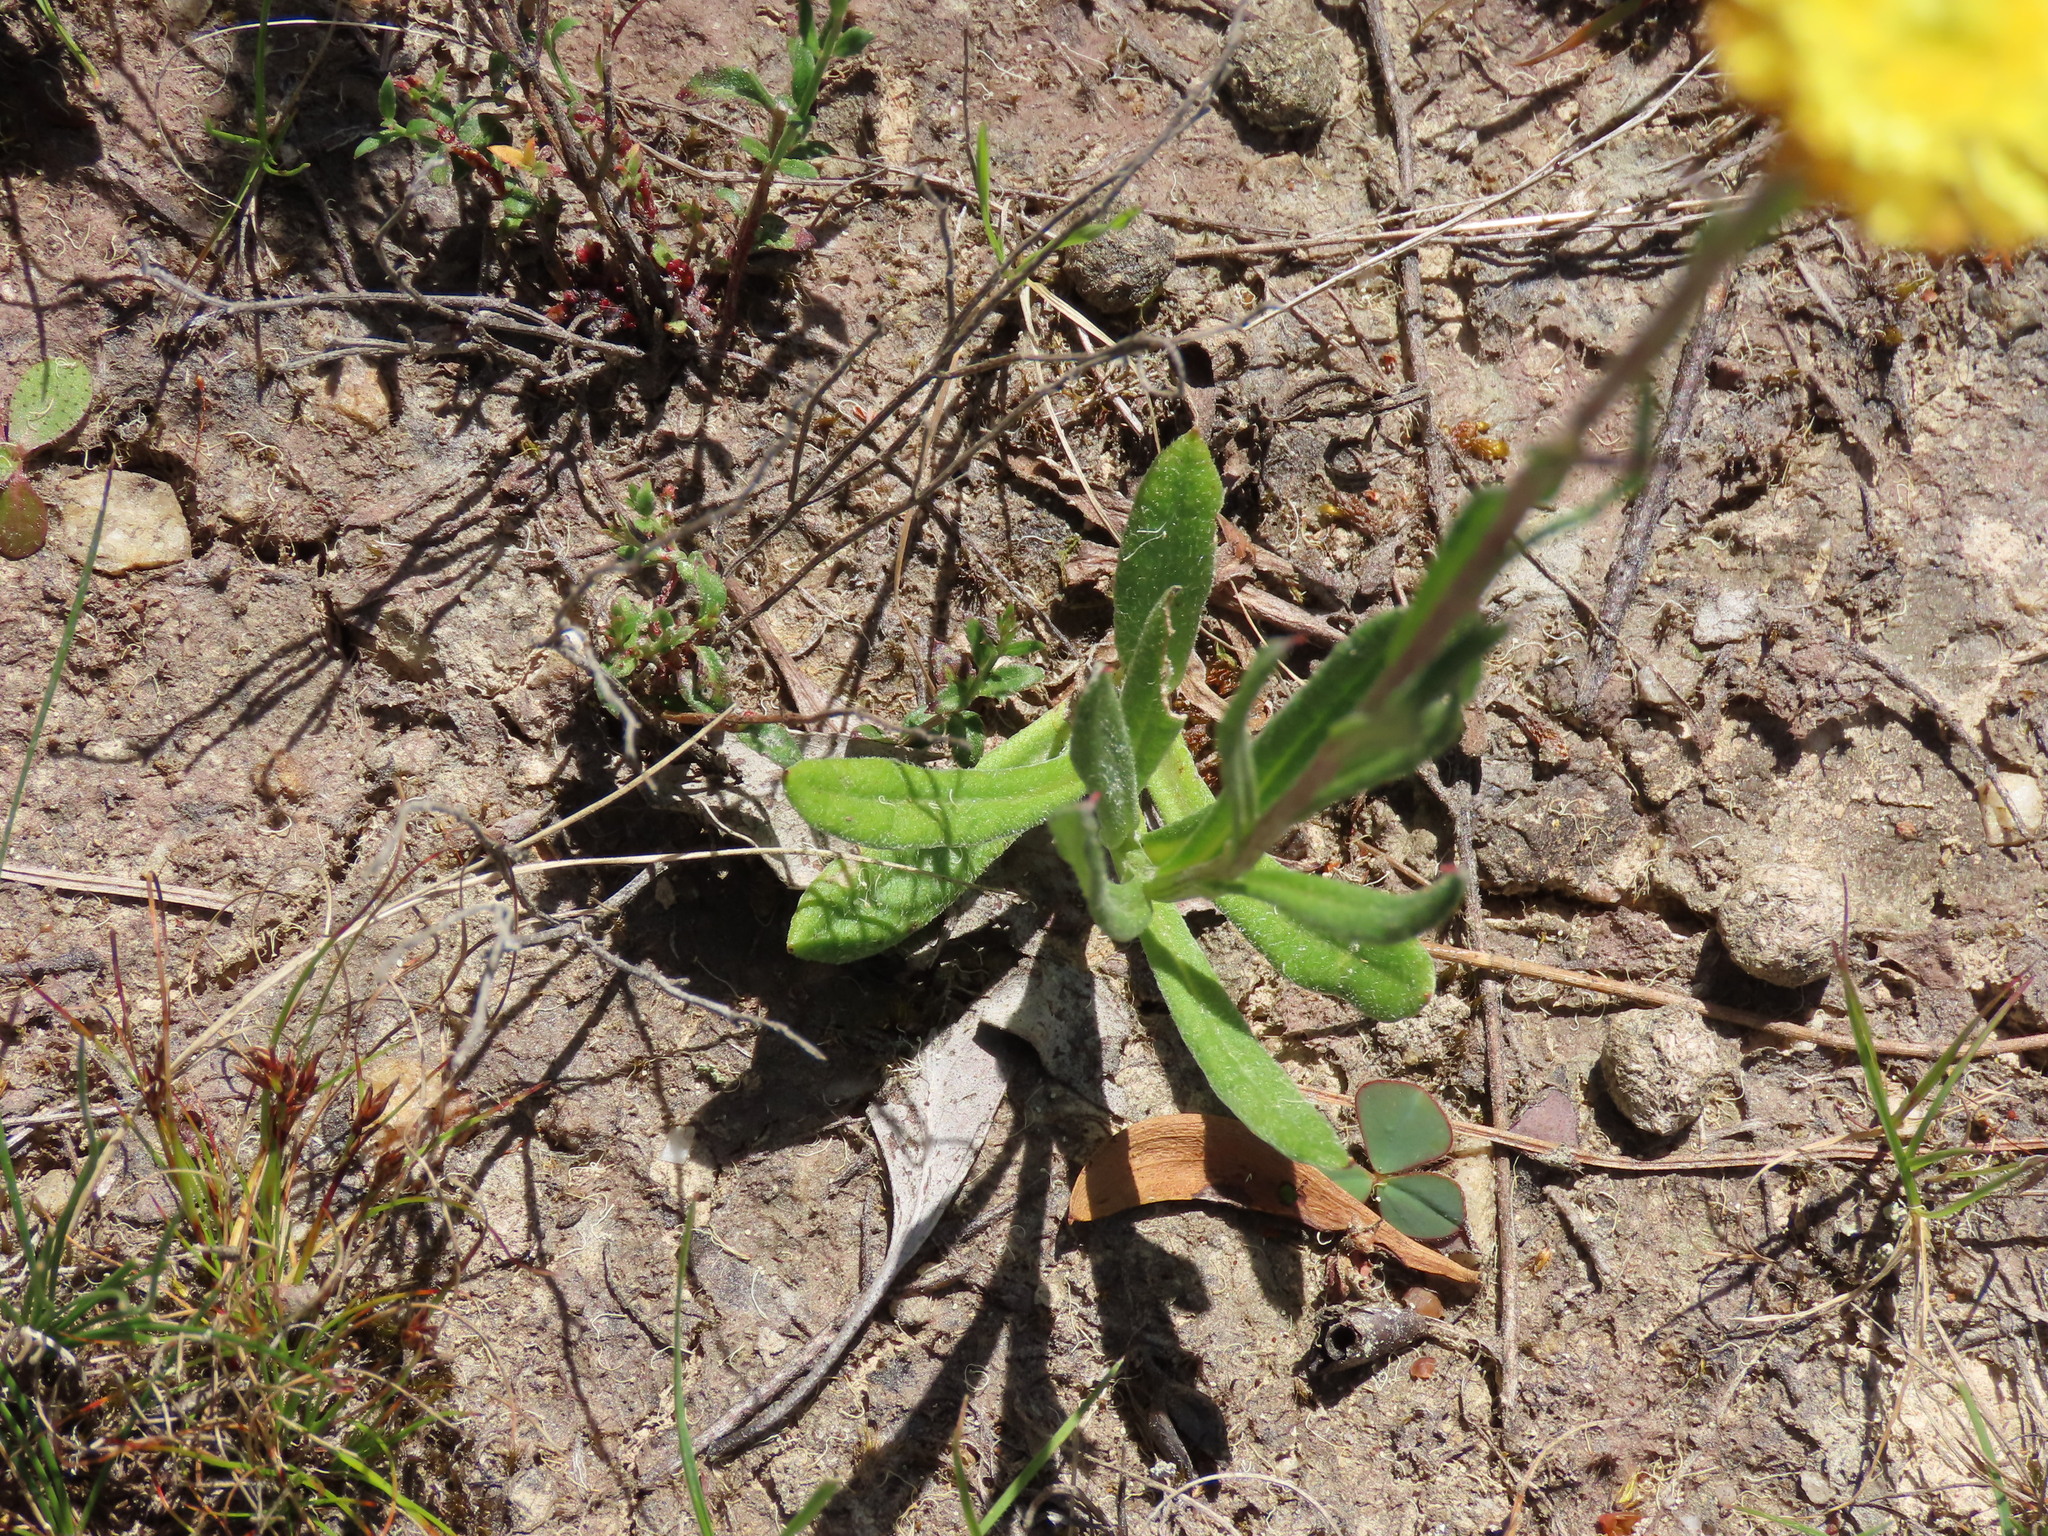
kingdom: Plantae
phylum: Tracheophyta
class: Magnoliopsida
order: Asterales
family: Asteraceae
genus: Coronidium
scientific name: Coronidium scorpioides
